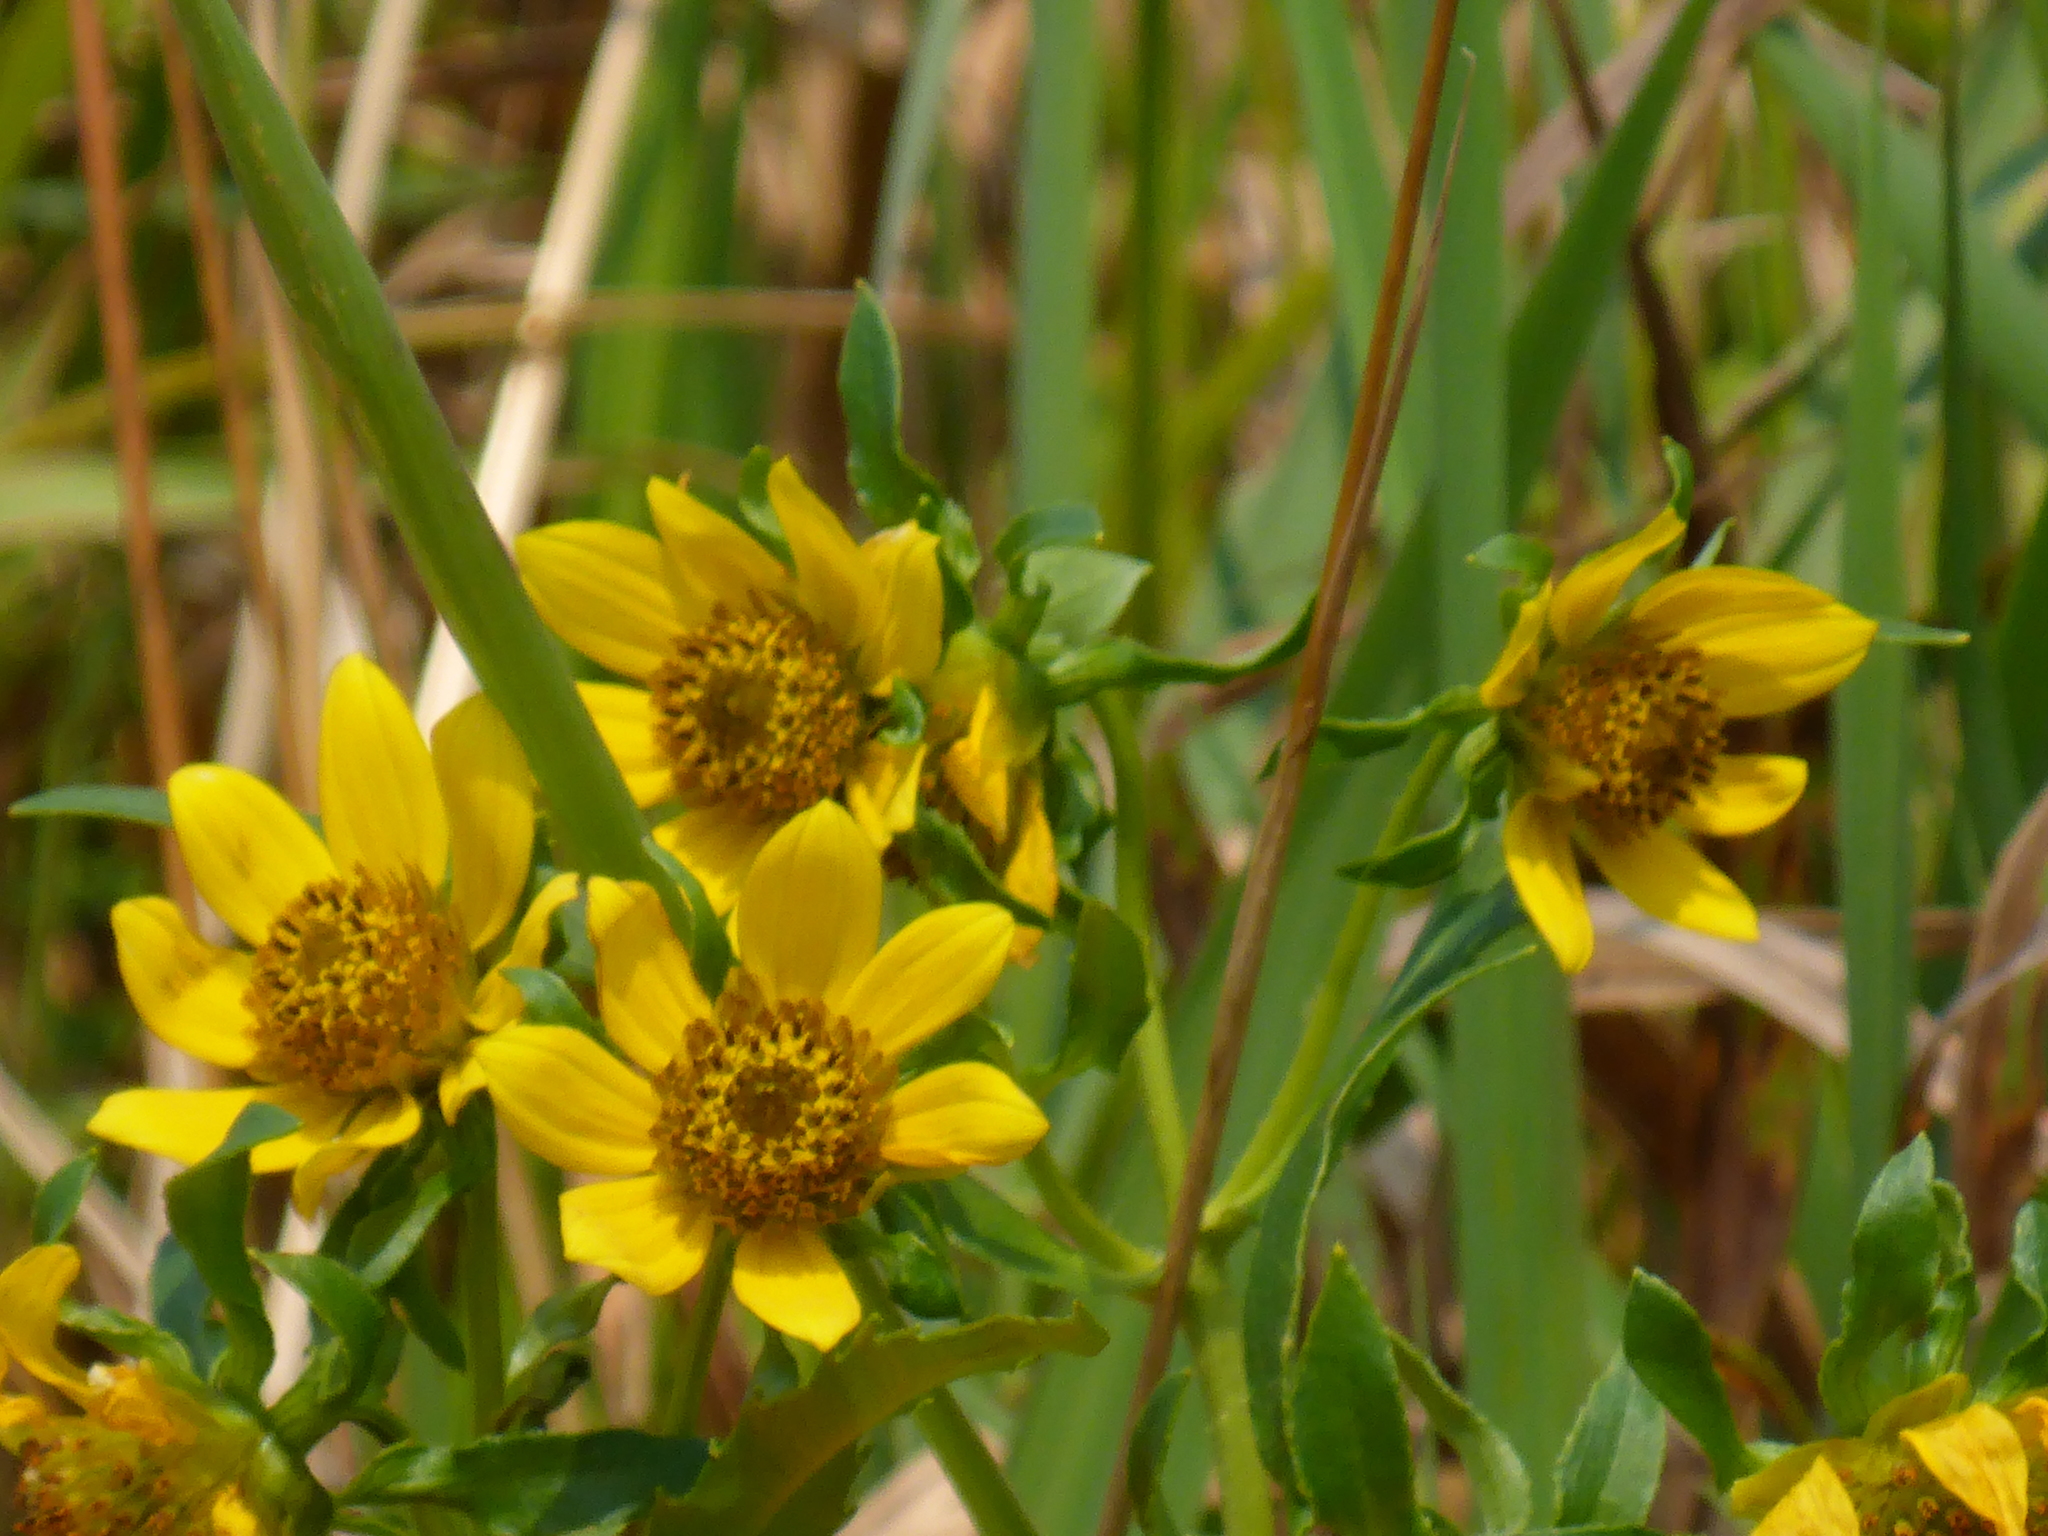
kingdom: Plantae
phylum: Tracheophyta
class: Magnoliopsida
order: Asterales
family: Asteraceae
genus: Bidens
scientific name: Bidens cernua
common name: Nodding bur-marigold
